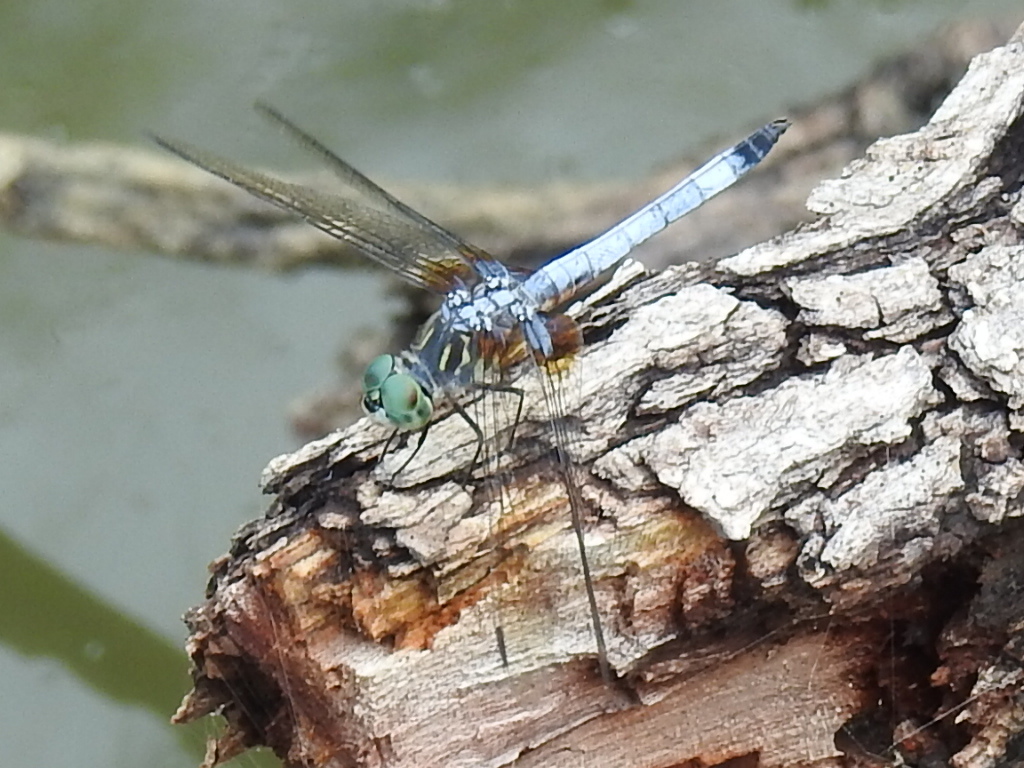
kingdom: Animalia
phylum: Arthropoda
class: Insecta
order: Odonata
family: Libellulidae
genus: Pachydiplax
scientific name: Pachydiplax longipennis
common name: Blue dasher
